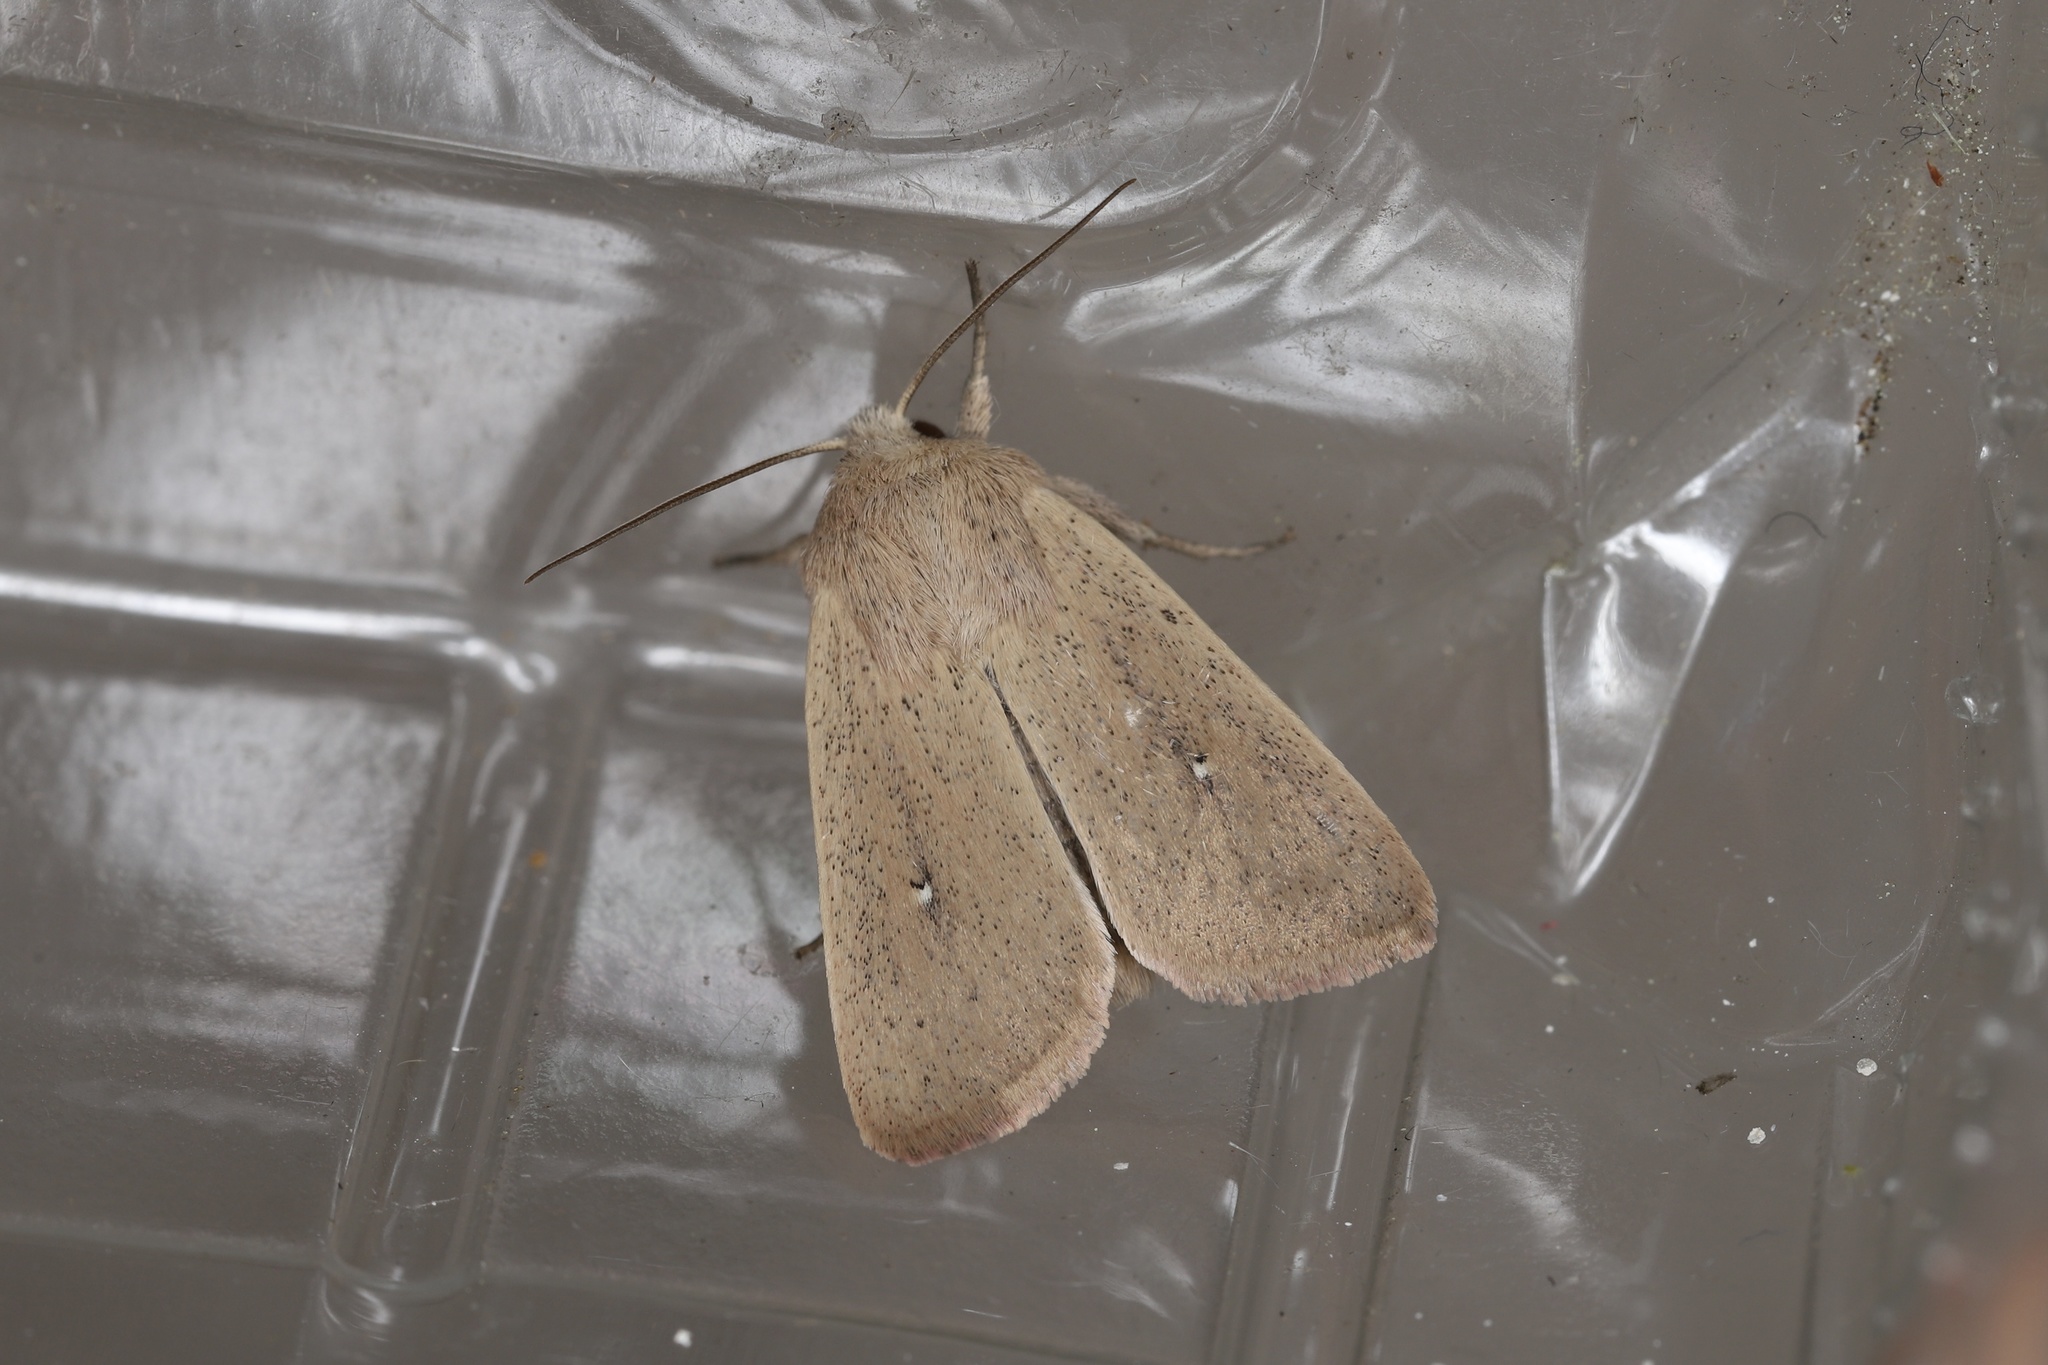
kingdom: Animalia
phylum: Arthropoda
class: Insecta
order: Lepidoptera
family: Noctuidae
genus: Mythimna
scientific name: Mythimna sicula
